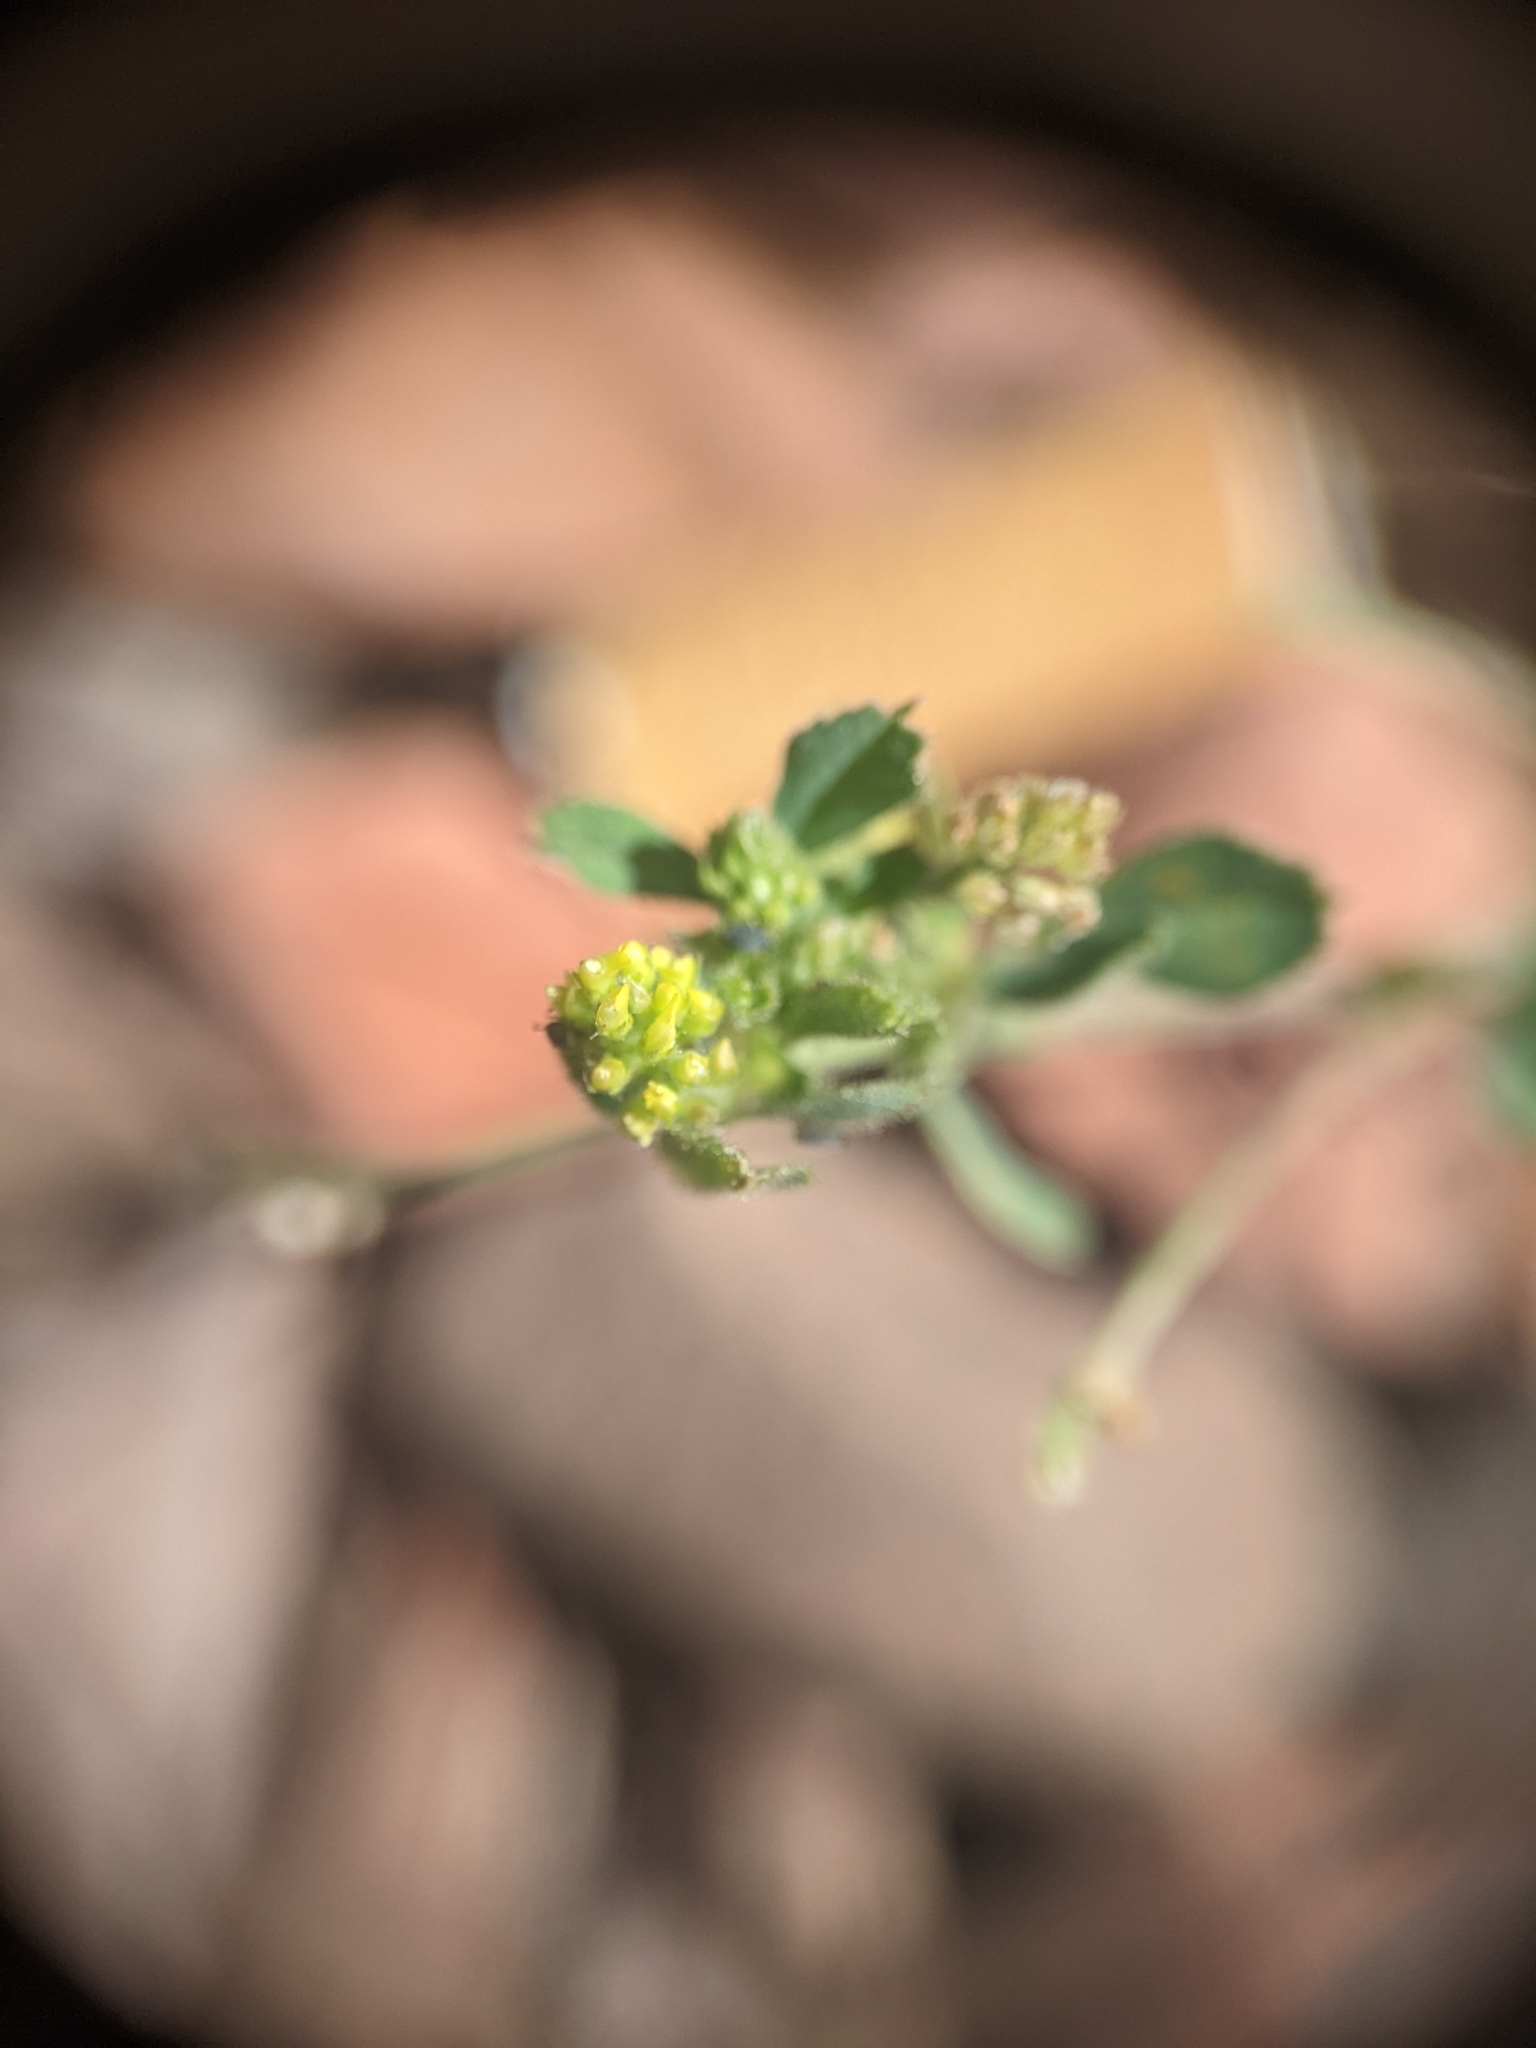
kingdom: Plantae
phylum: Tracheophyta
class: Magnoliopsida
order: Fabales
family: Fabaceae
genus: Medicago
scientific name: Medicago lupulina
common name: Black medick
